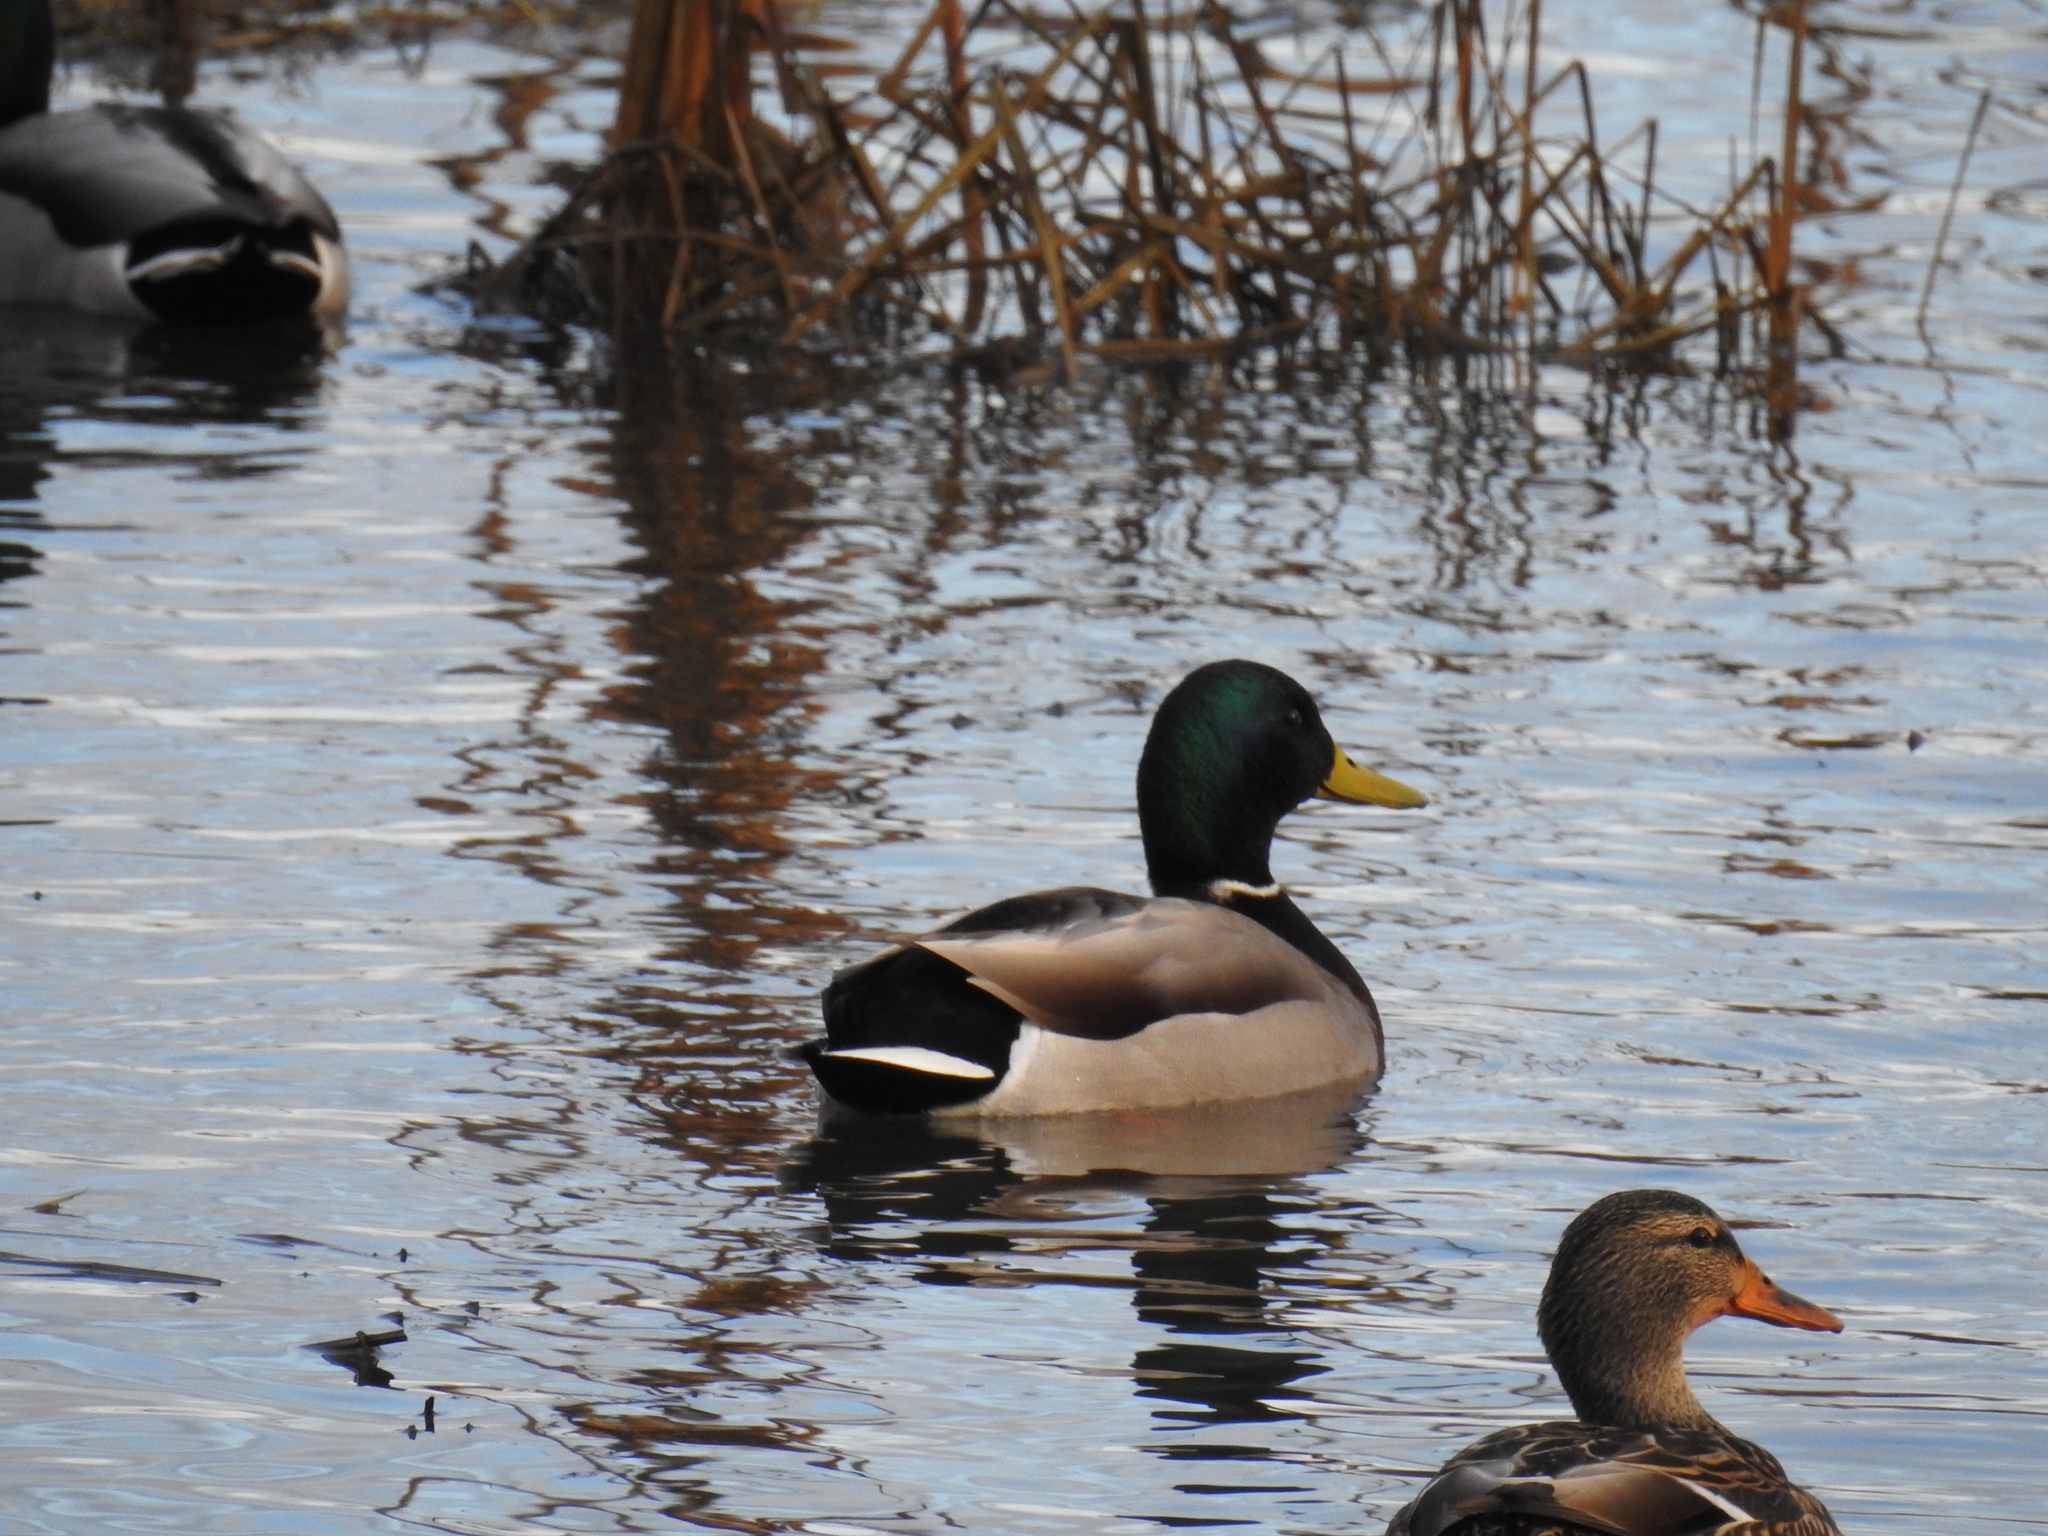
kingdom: Animalia
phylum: Chordata
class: Aves
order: Anseriformes
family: Anatidae
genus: Anas
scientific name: Anas platyrhynchos
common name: Mallard
